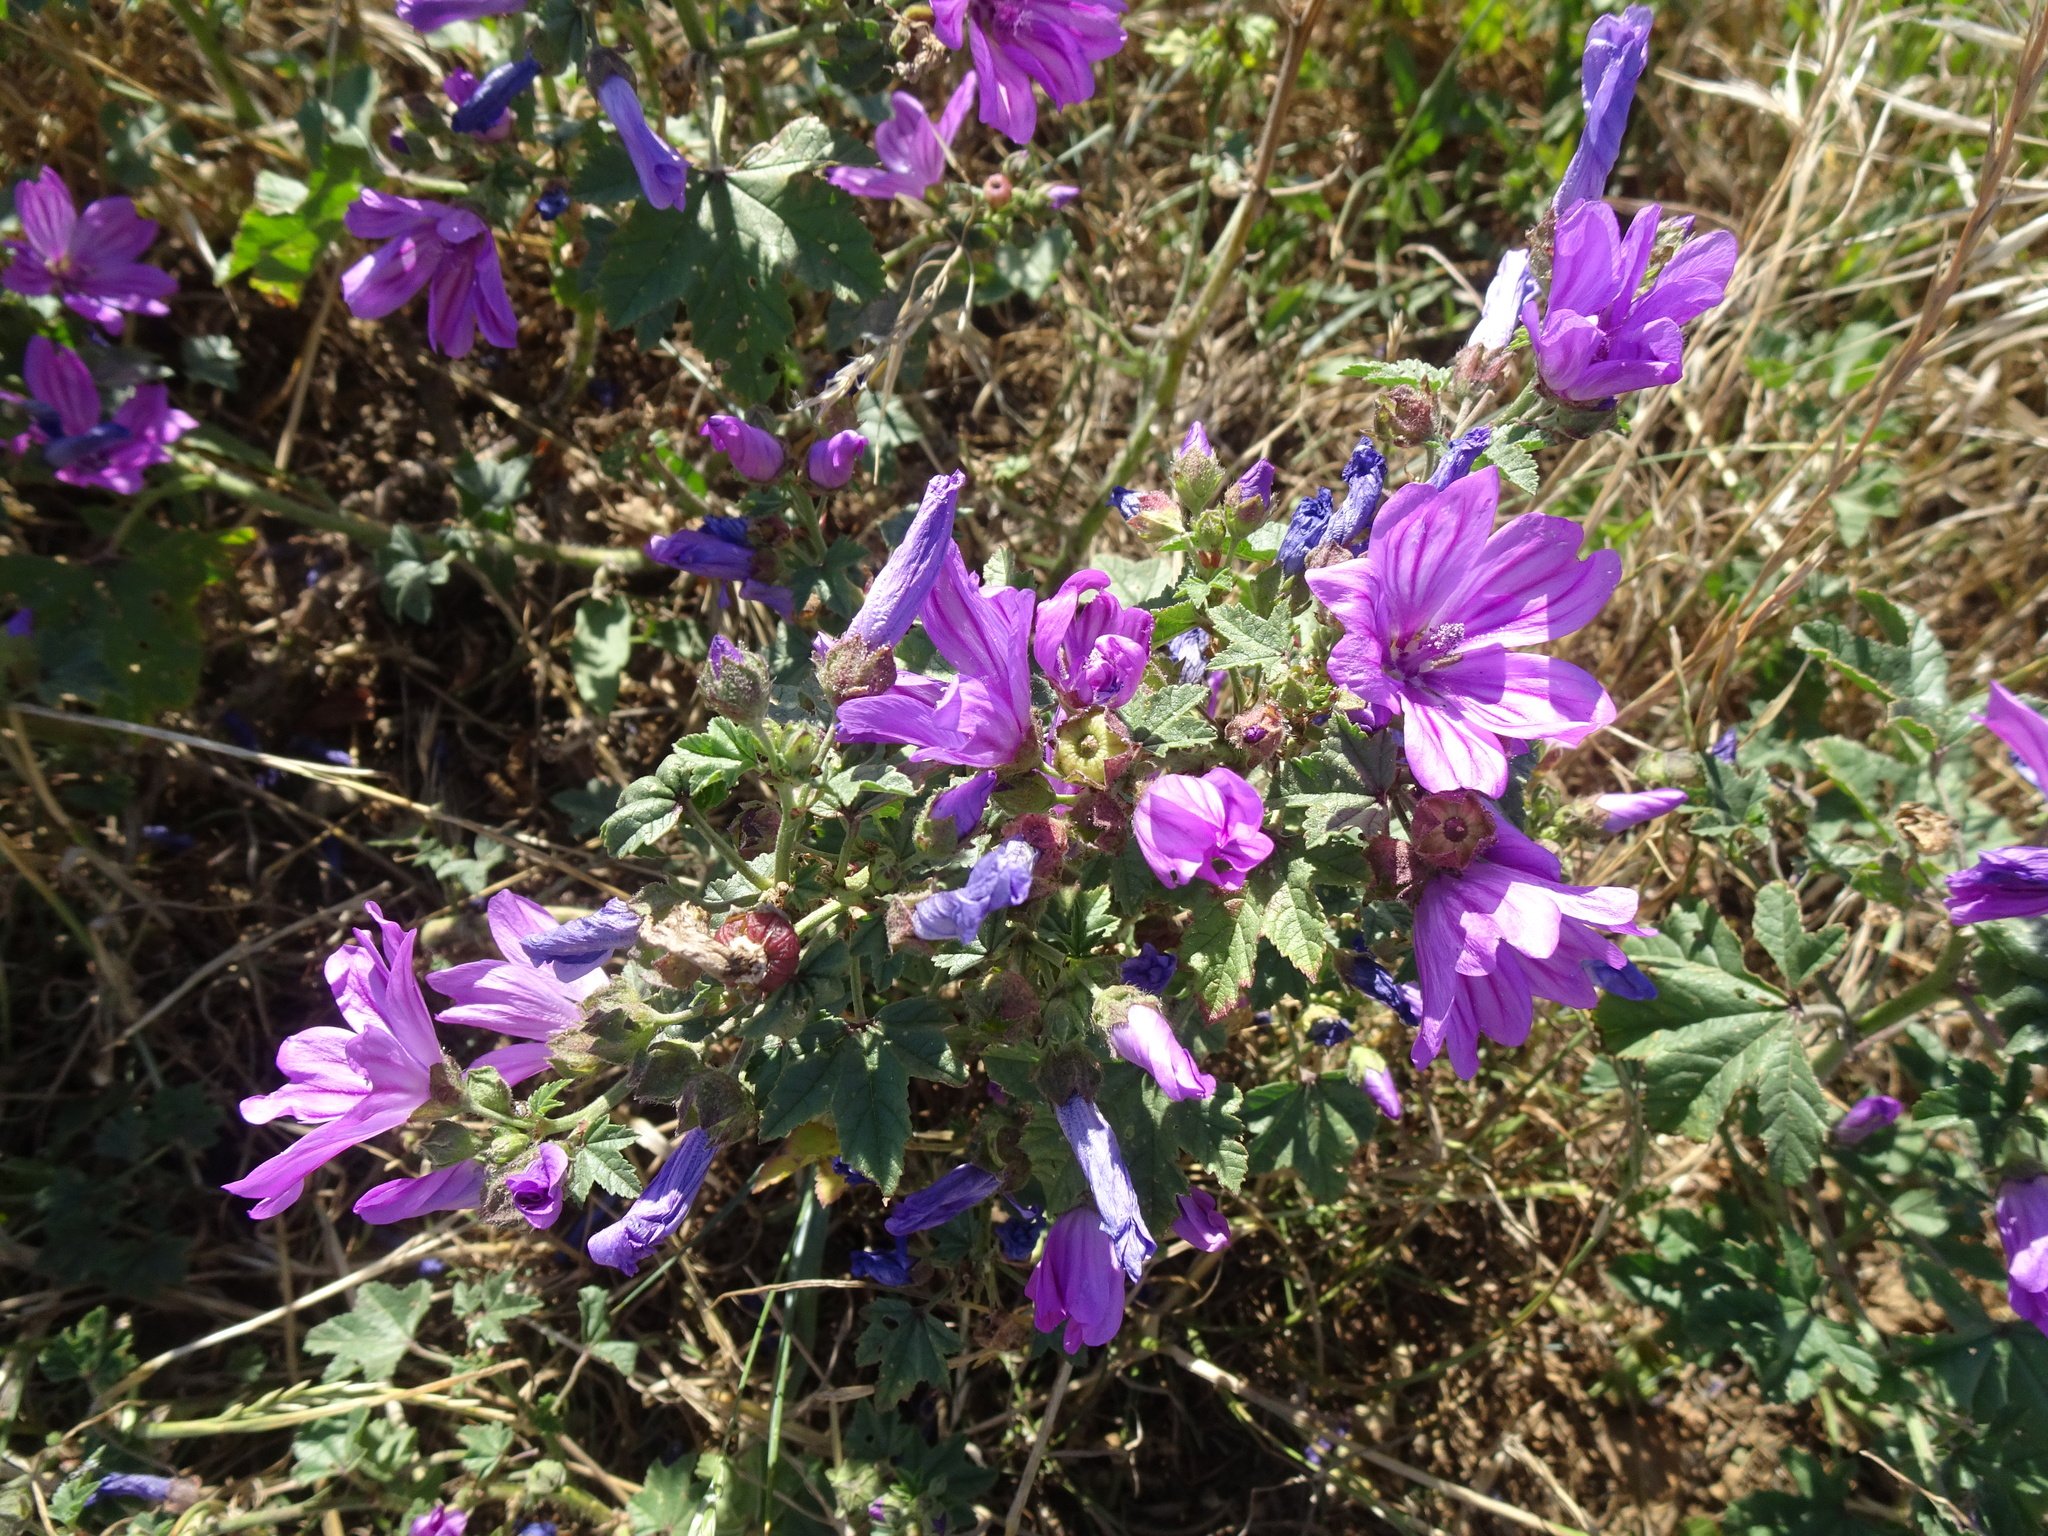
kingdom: Plantae
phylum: Tracheophyta
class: Magnoliopsida
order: Malvales
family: Malvaceae
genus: Malva
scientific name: Malva sylvestris
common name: Common mallow
